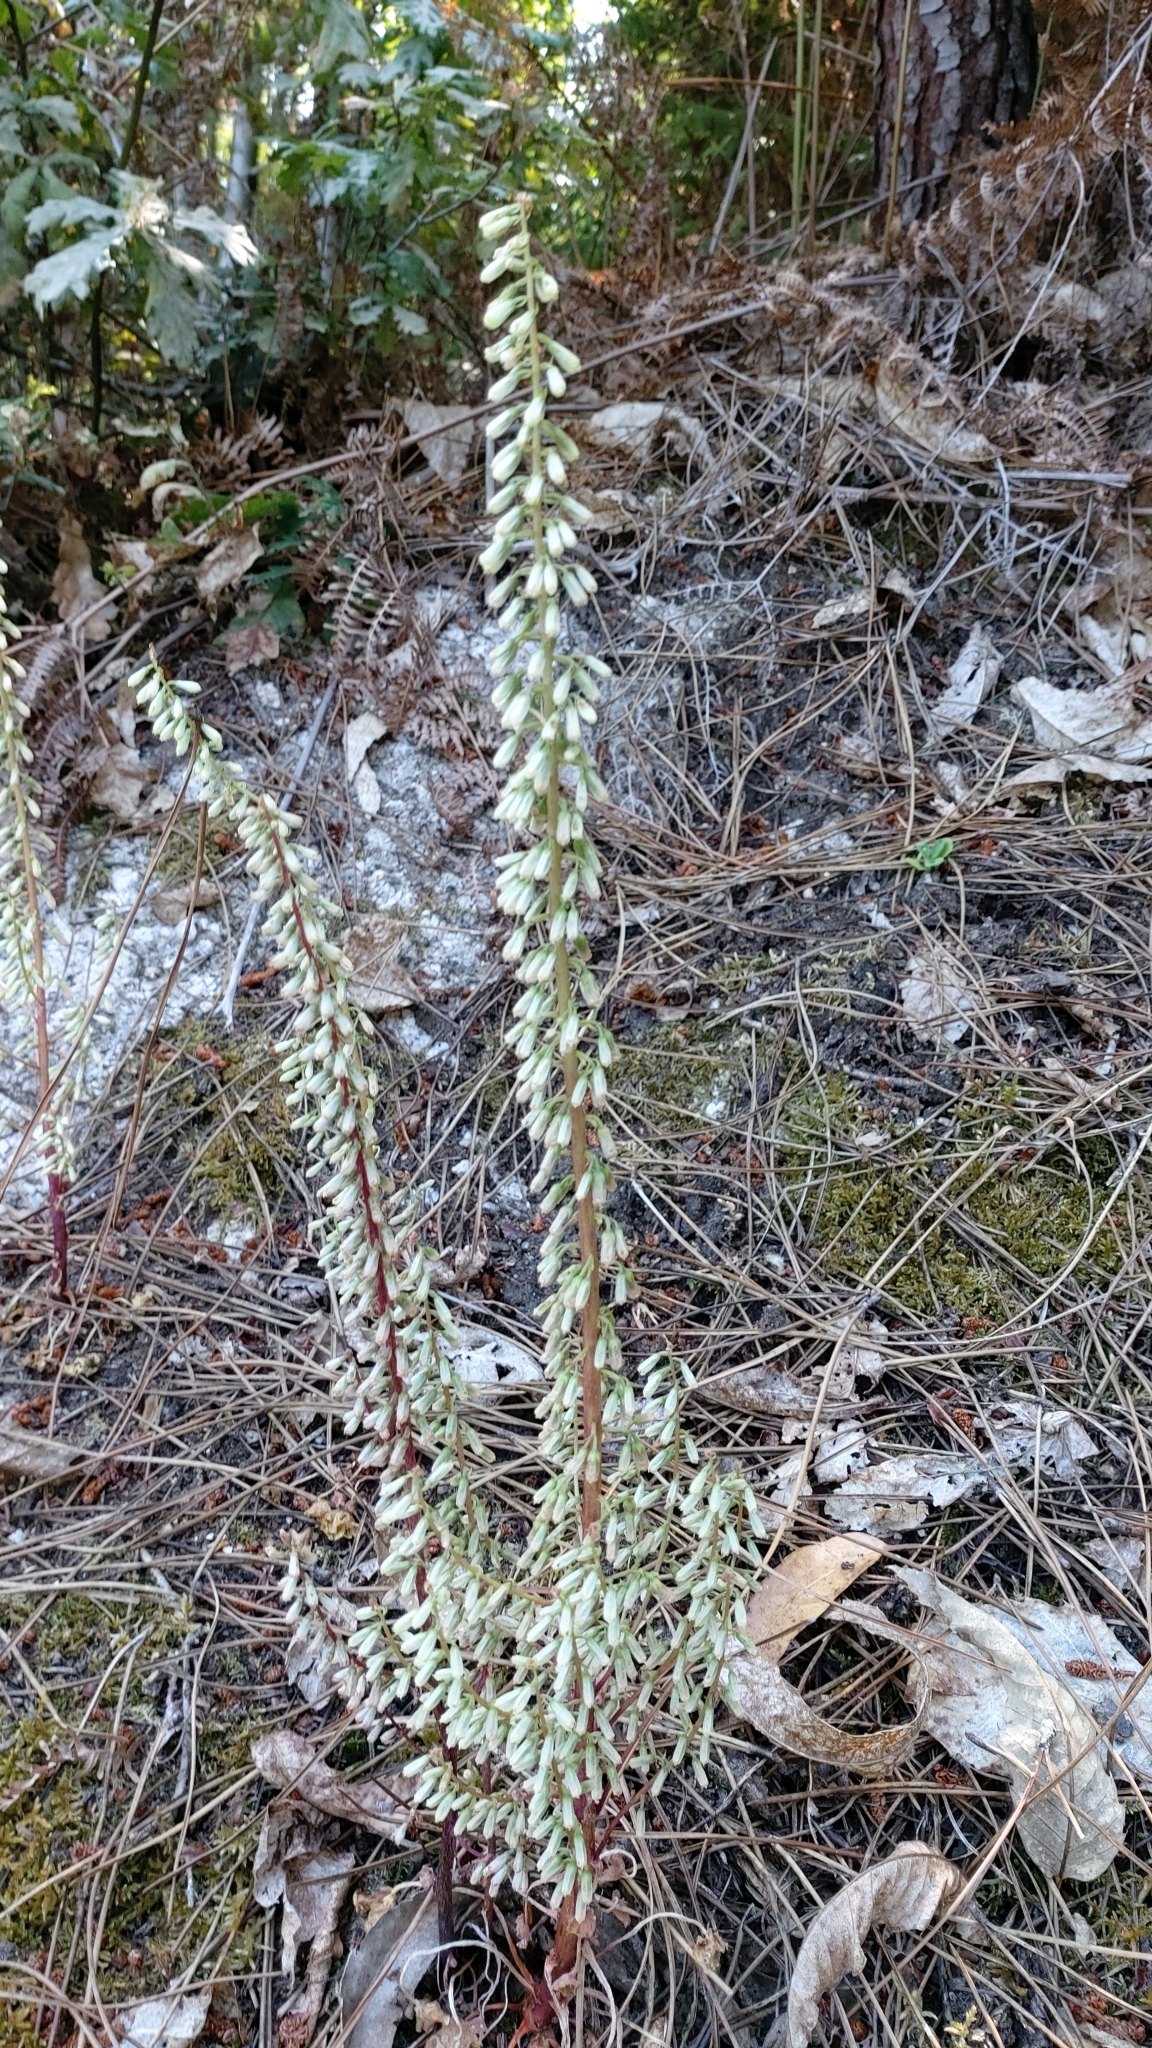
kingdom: Plantae
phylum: Tracheophyta
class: Magnoliopsida
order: Saxifragales
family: Crassulaceae
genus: Umbilicus
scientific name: Umbilicus rupestris
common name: Navelwort
